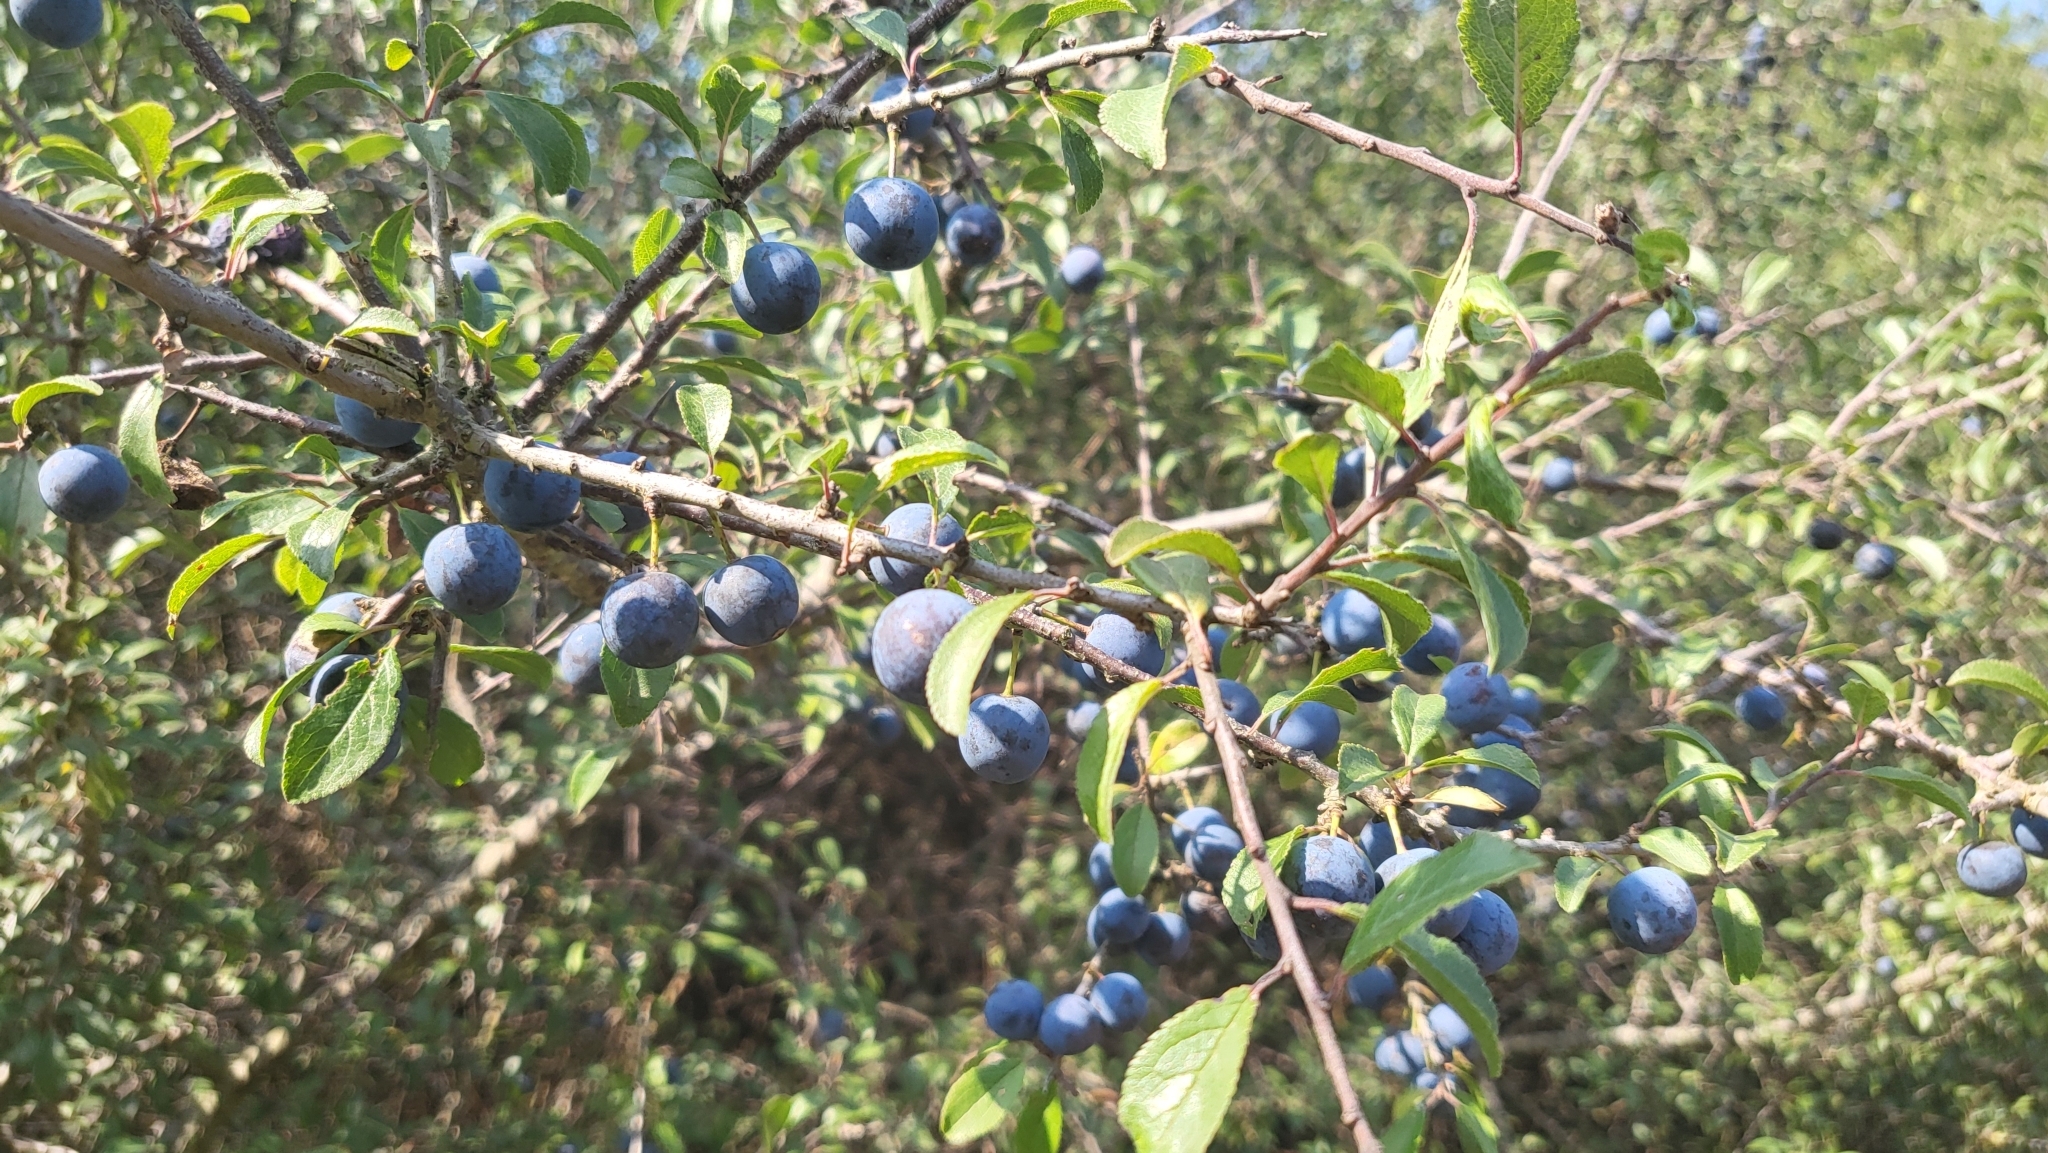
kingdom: Plantae
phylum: Tracheophyta
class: Magnoliopsida
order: Rosales
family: Rosaceae
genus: Prunus
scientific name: Prunus spinosa
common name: Blackthorn
